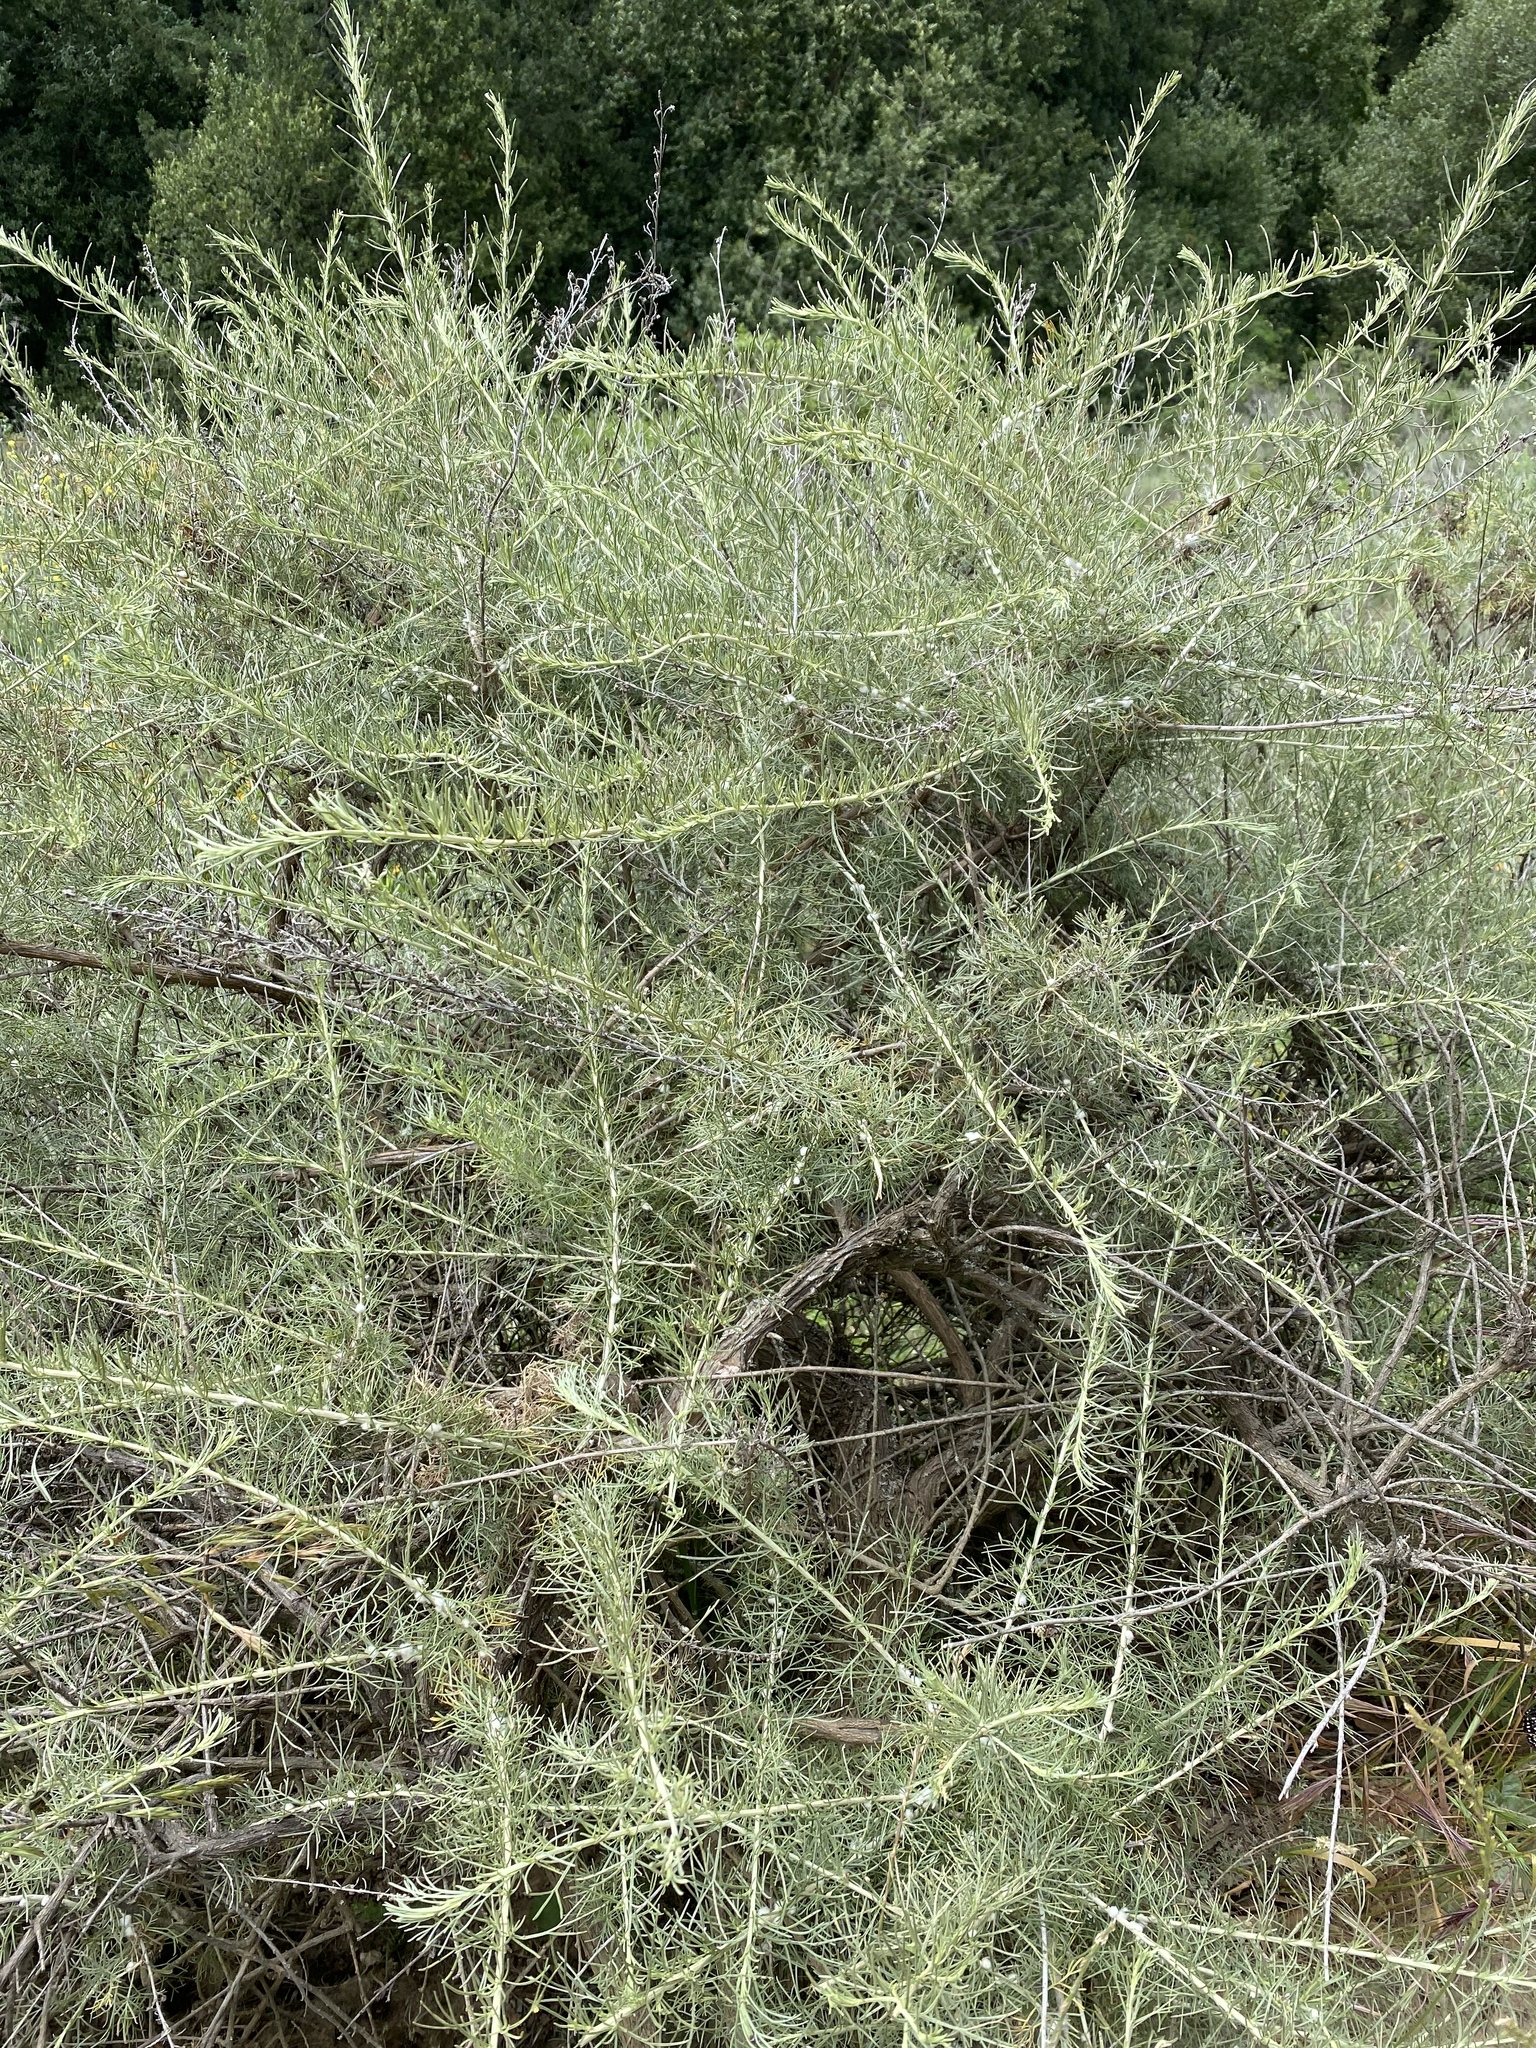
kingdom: Plantae
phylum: Tracheophyta
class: Magnoliopsida
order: Asterales
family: Asteraceae
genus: Artemisia
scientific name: Artemisia californica
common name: California sagebrush
